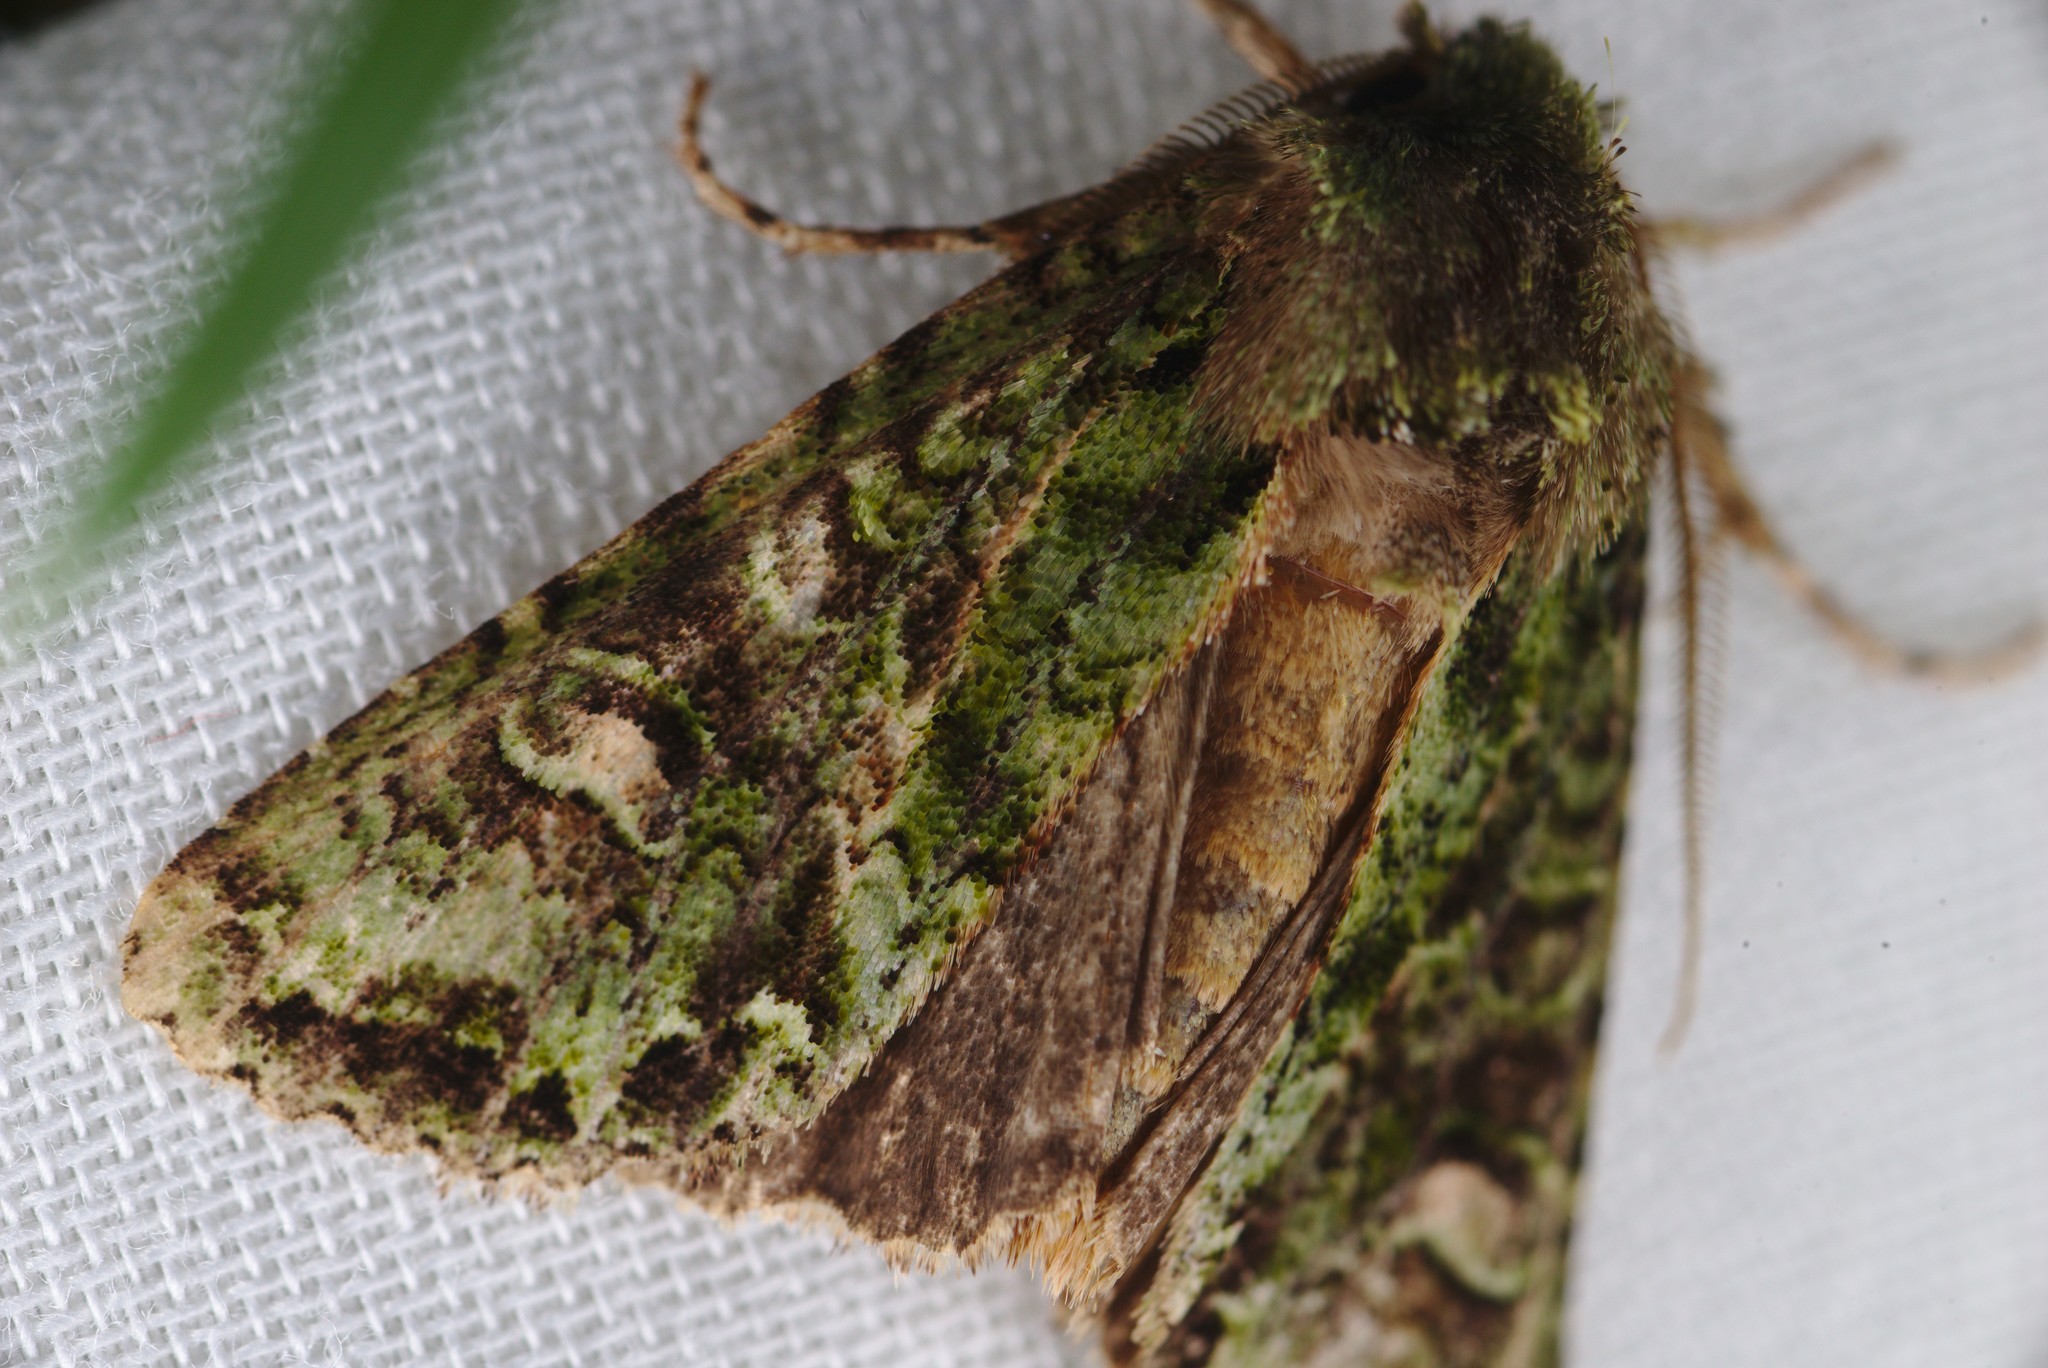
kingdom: Animalia
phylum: Arthropoda
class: Insecta
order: Lepidoptera
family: Noctuidae
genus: Ichneutica
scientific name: Ichneutica
